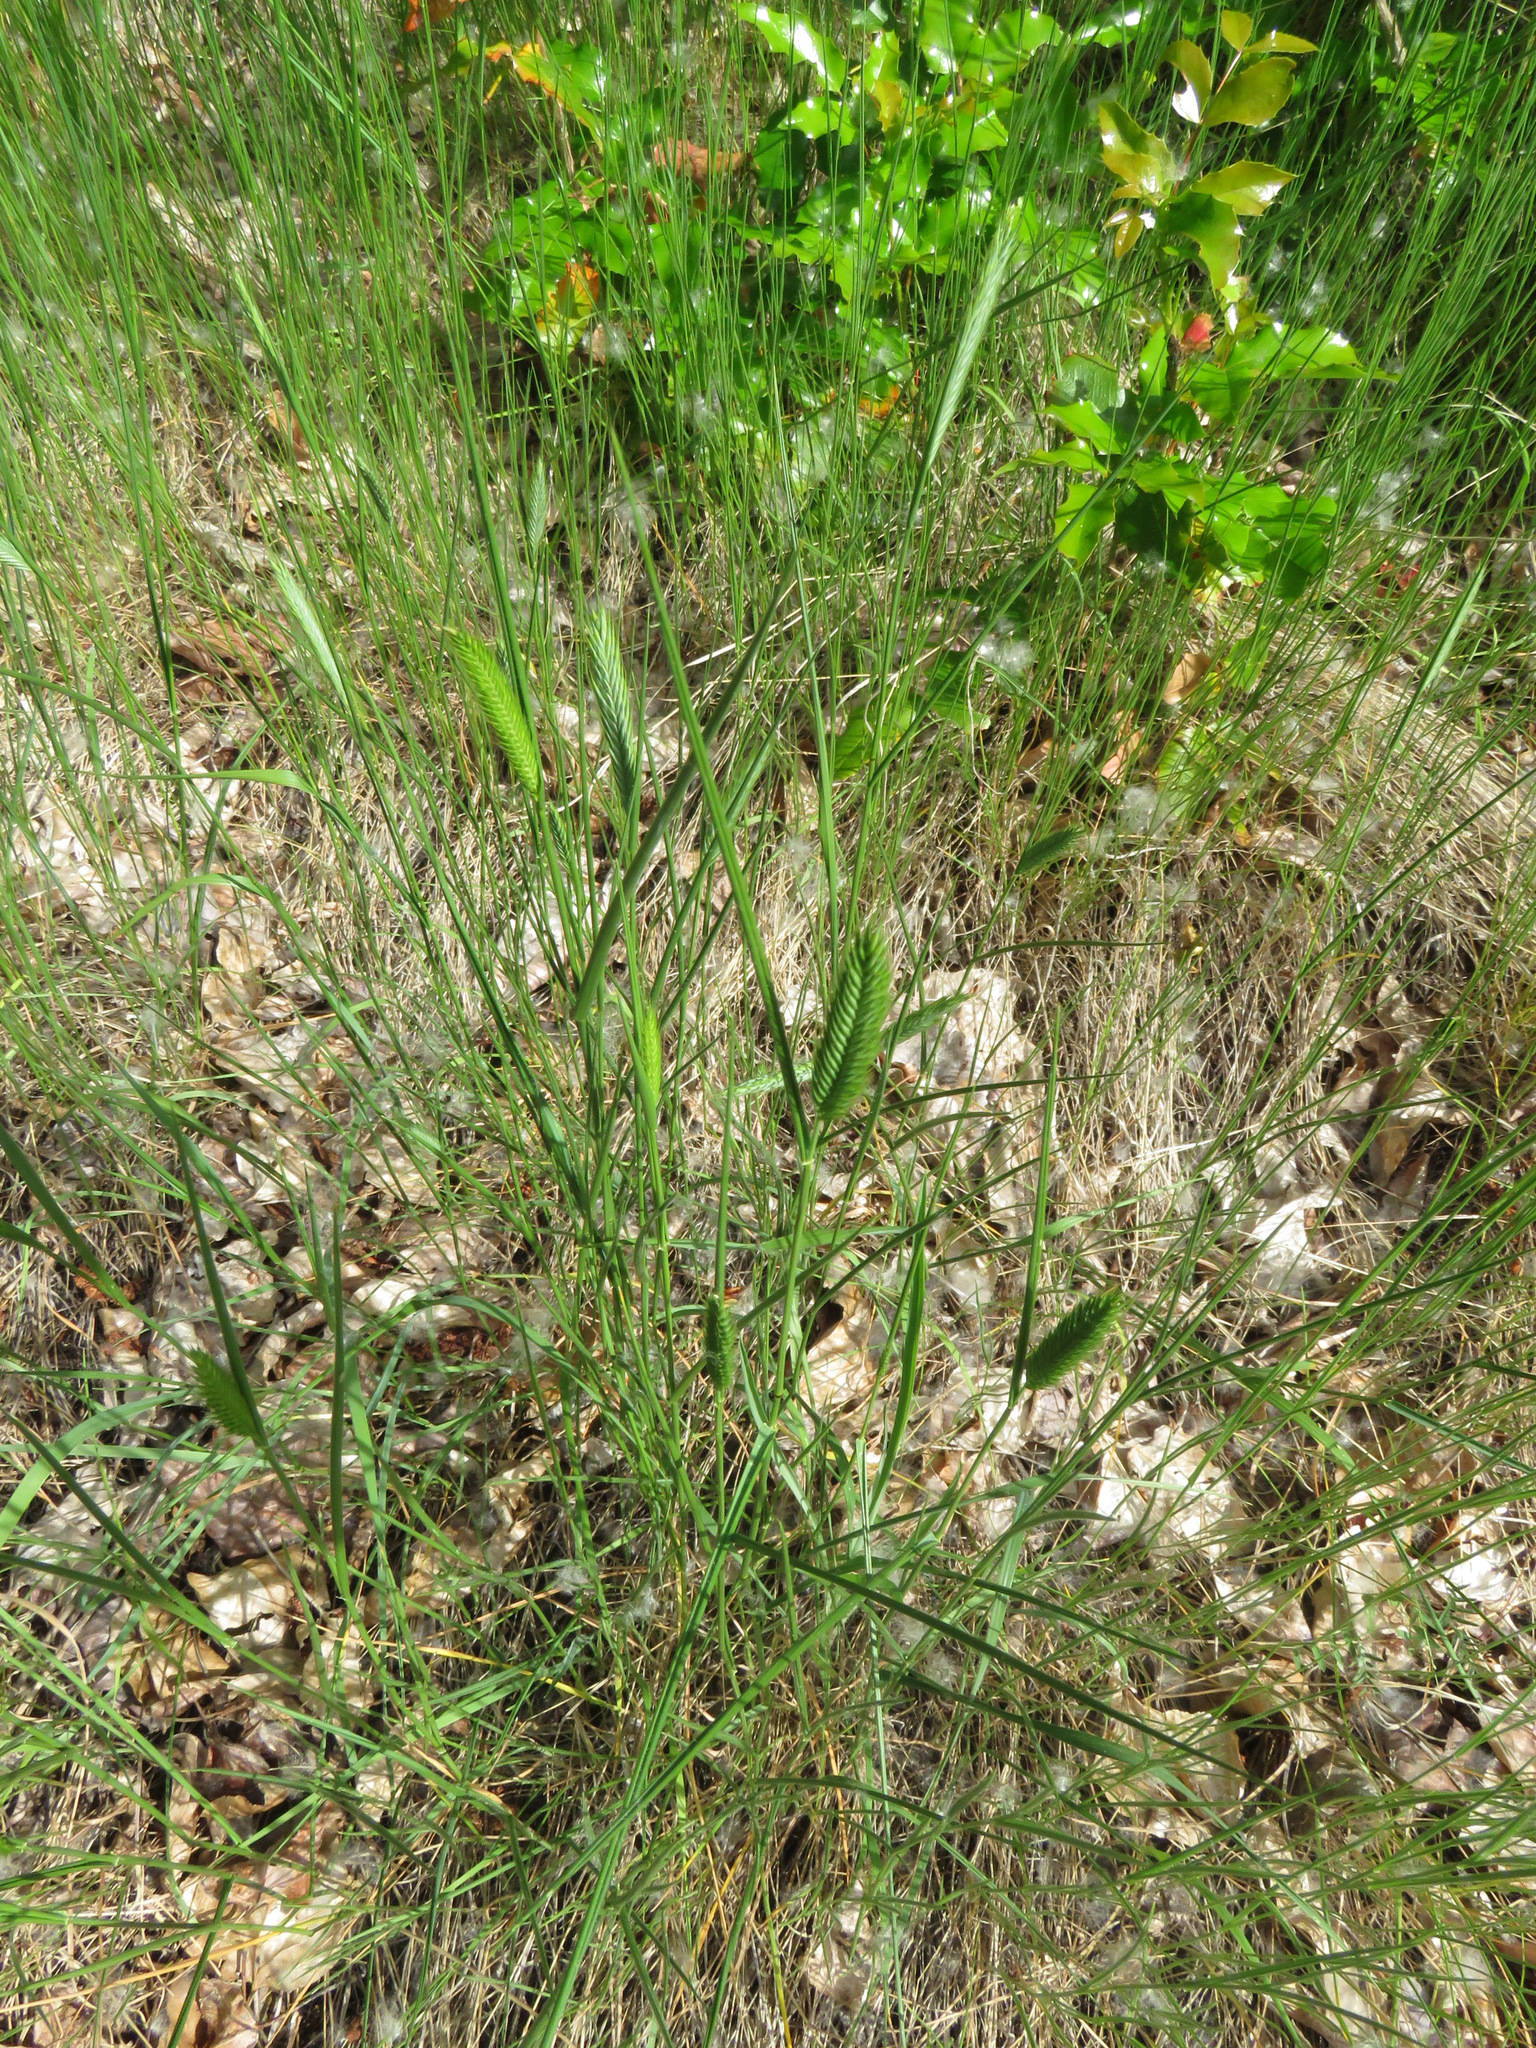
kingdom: Plantae
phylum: Tracheophyta
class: Liliopsida
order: Poales
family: Poaceae
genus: Agropyron
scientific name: Agropyron cristatum
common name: Crested wheatgrass
